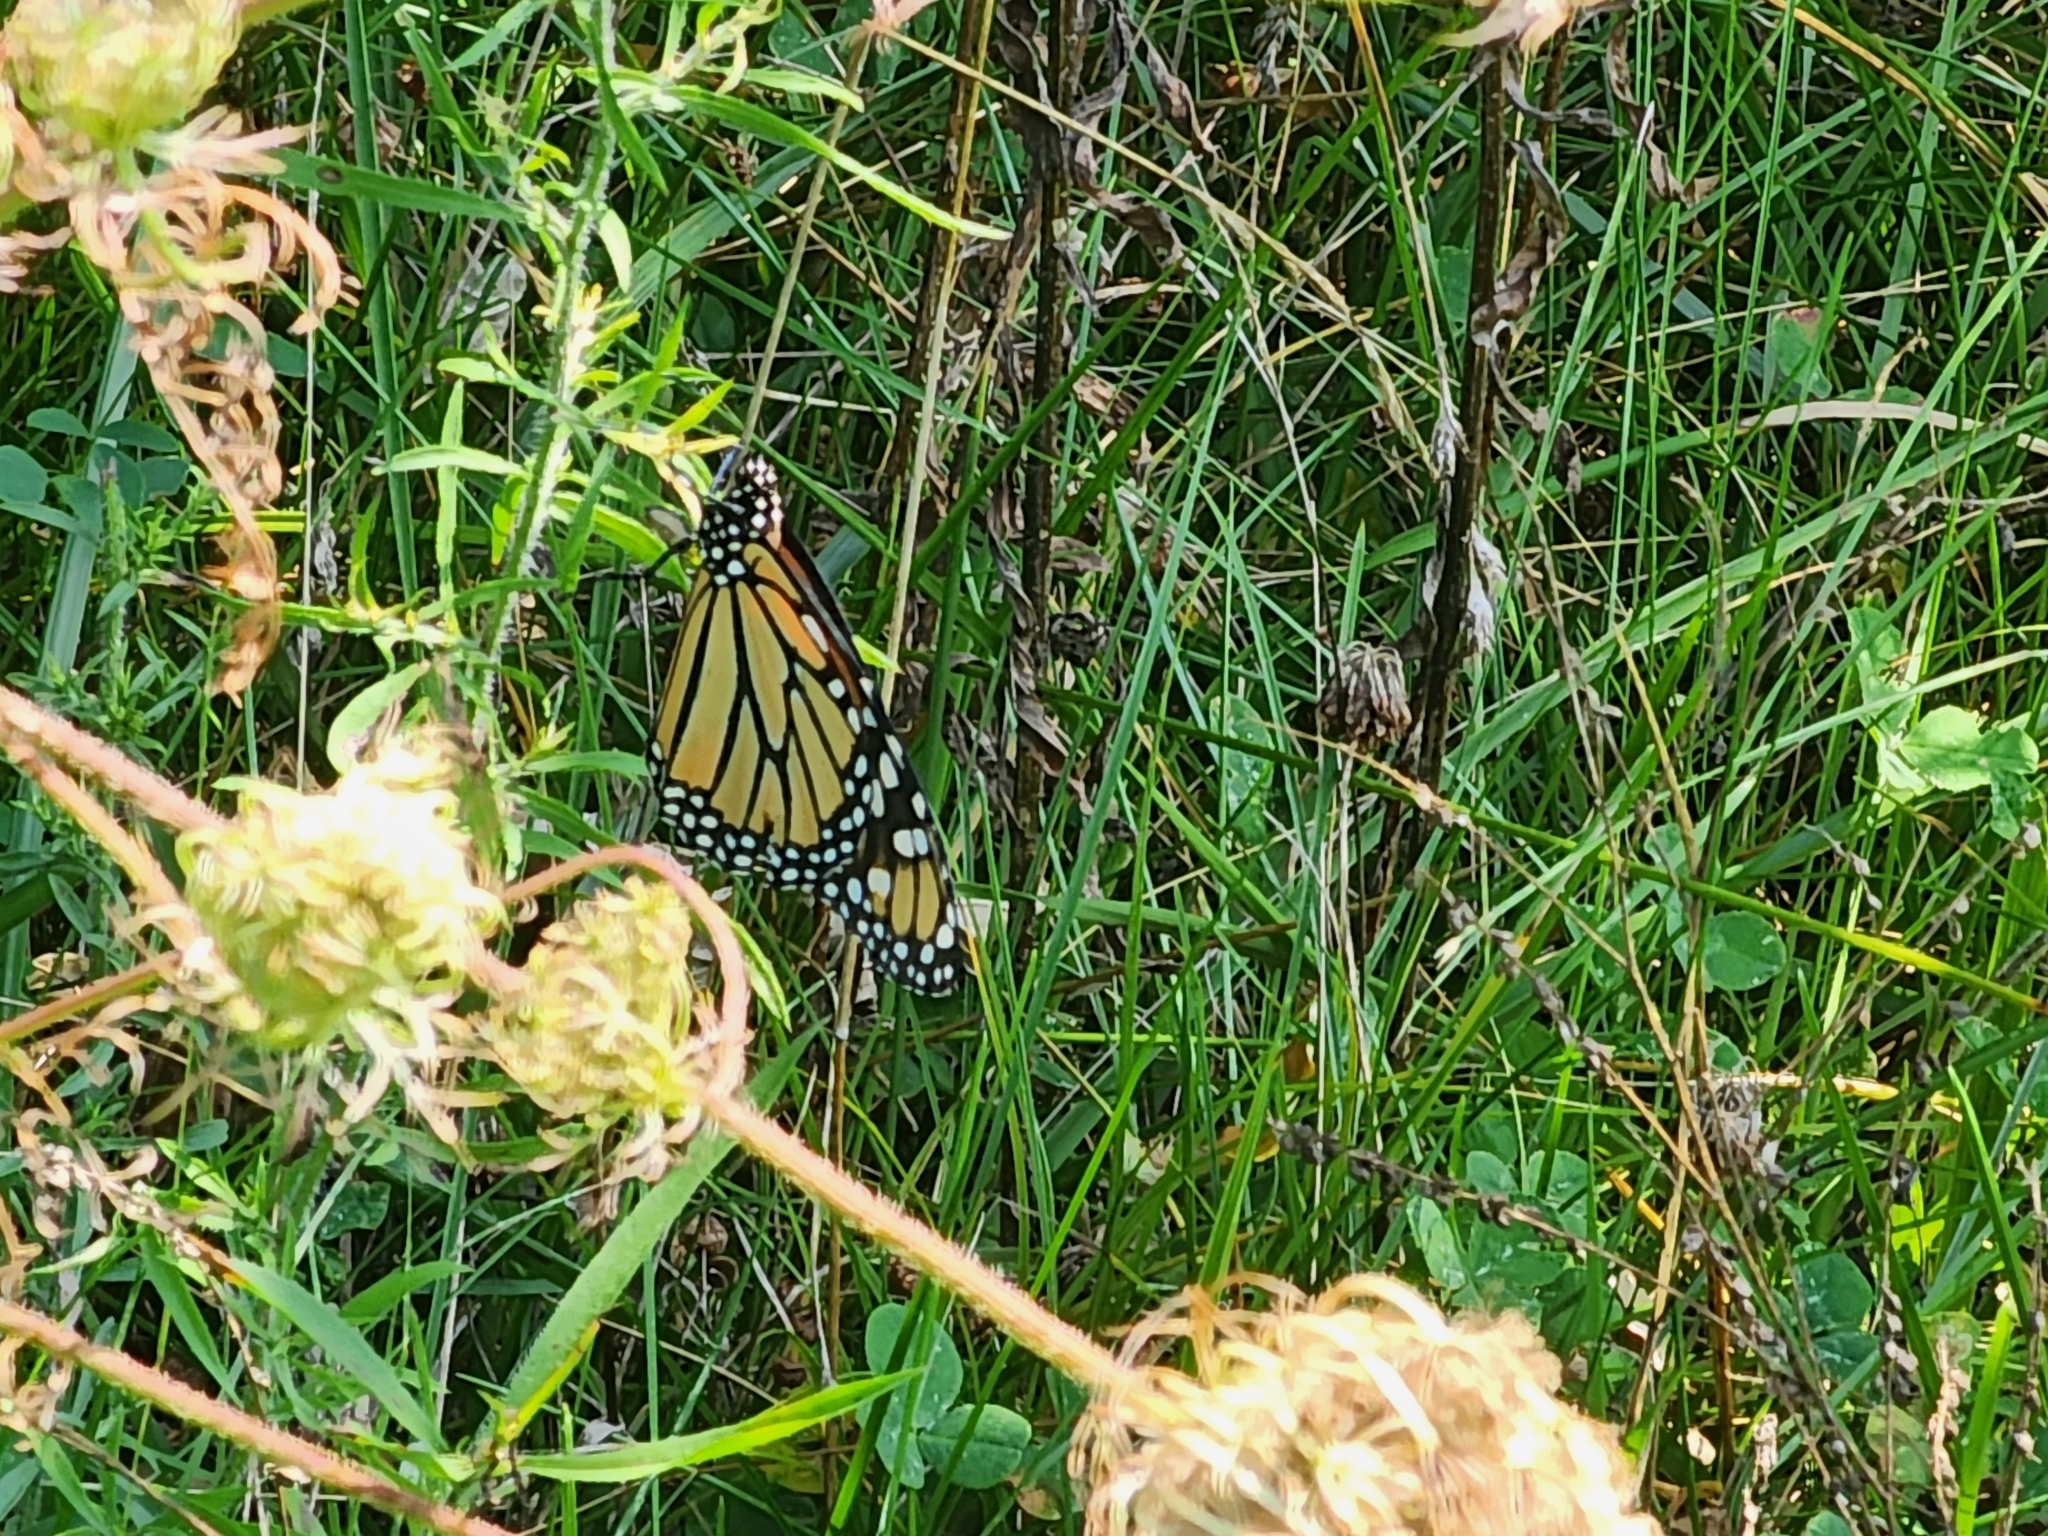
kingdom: Animalia
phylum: Arthropoda
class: Insecta
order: Lepidoptera
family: Nymphalidae
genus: Danaus
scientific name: Danaus plexippus
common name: Monarch
